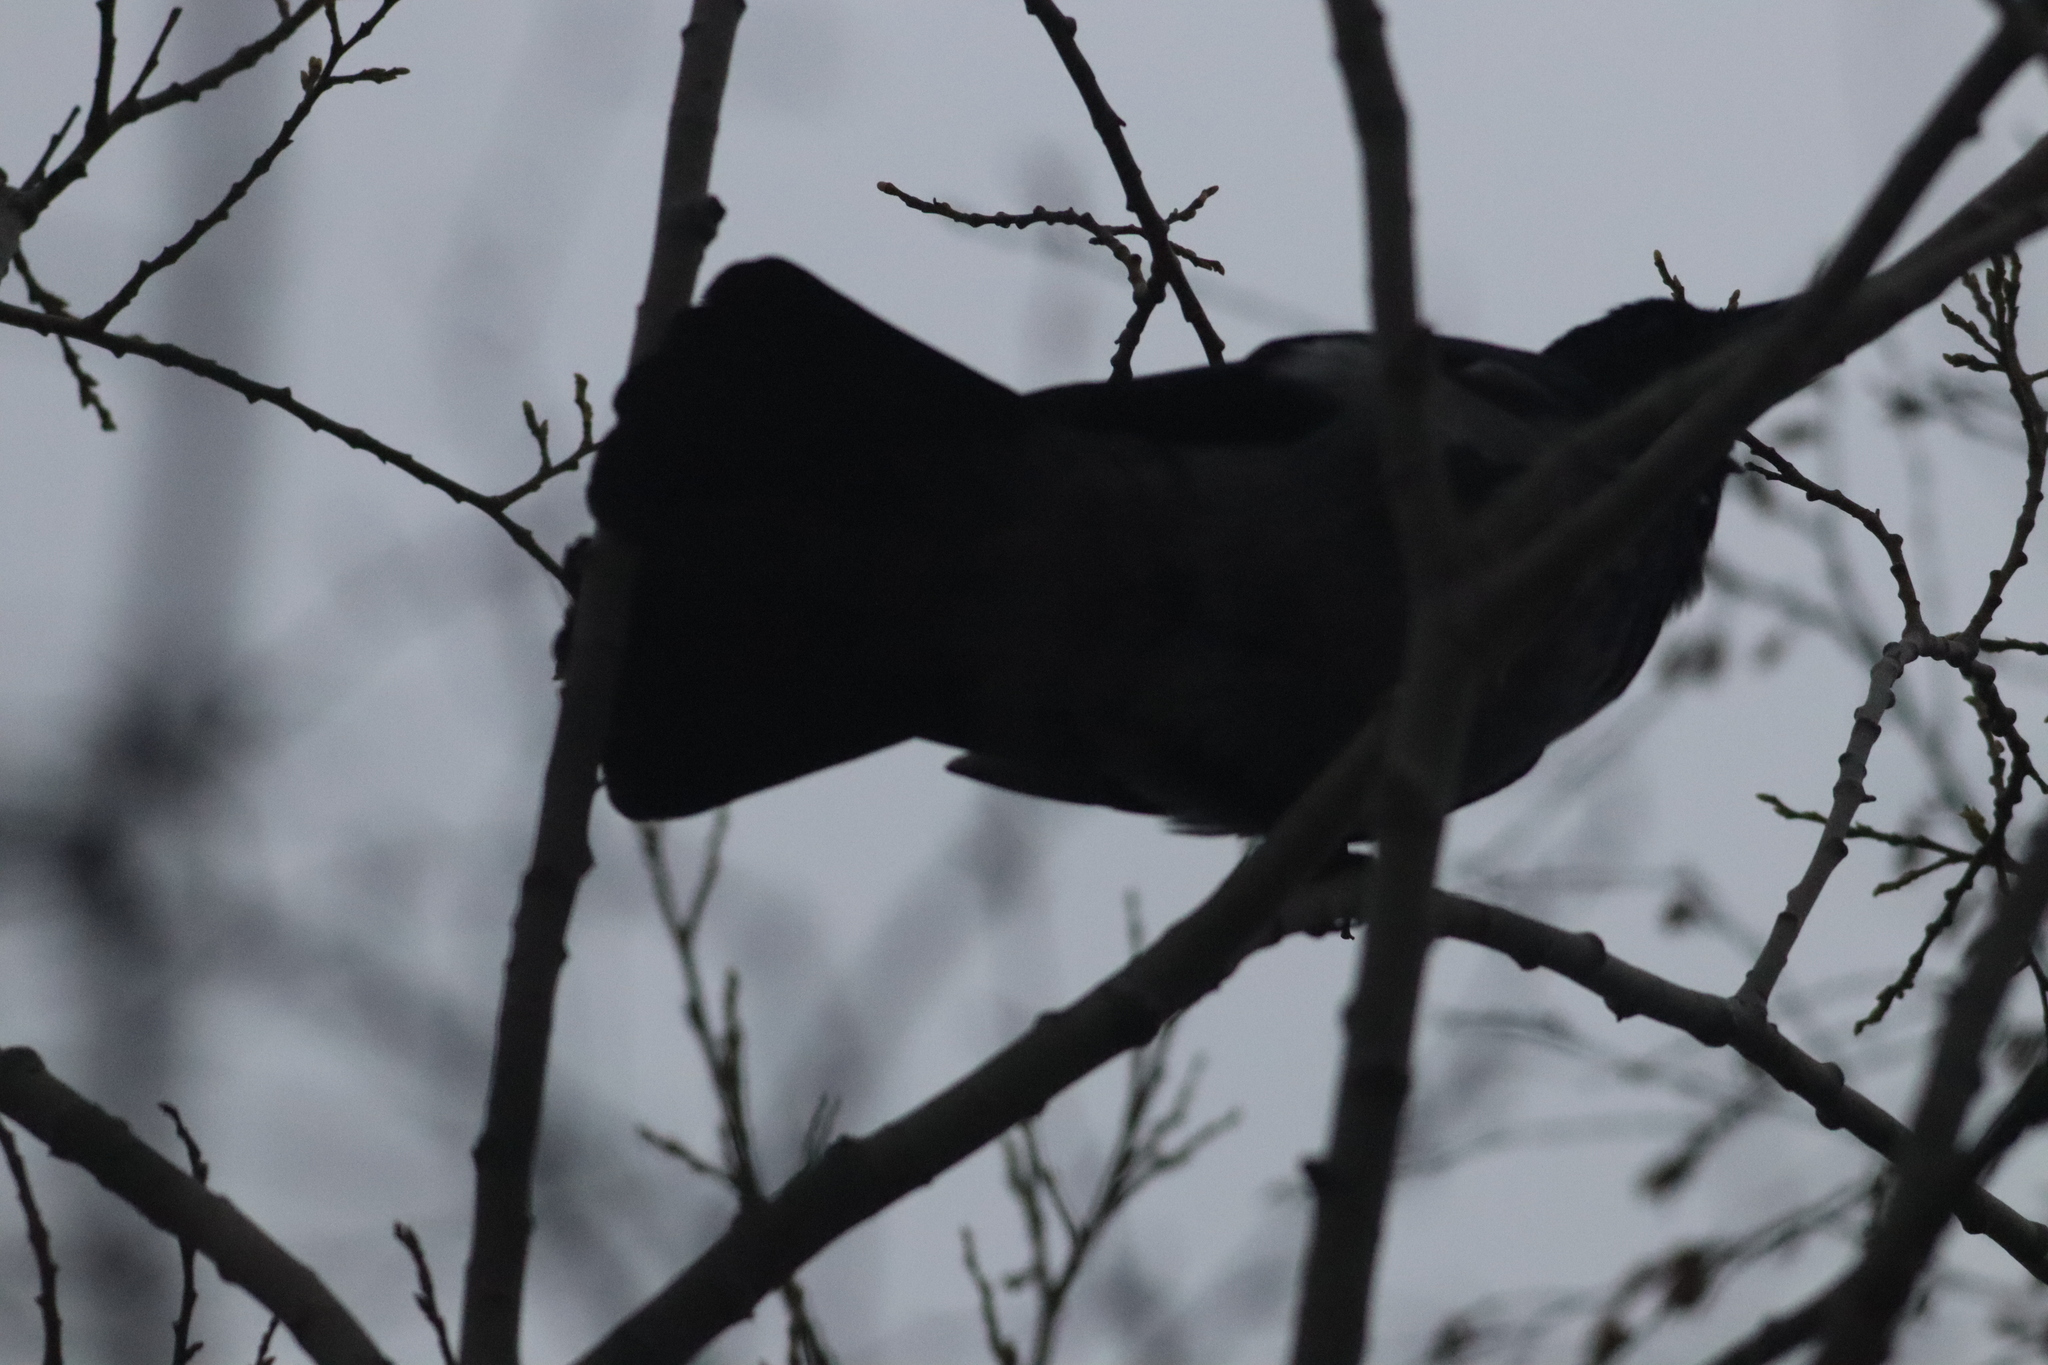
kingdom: Animalia
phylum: Chordata
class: Aves
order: Passeriformes
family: Corvidae
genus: Corvus
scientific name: Corvus cornix
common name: Hooded crow
